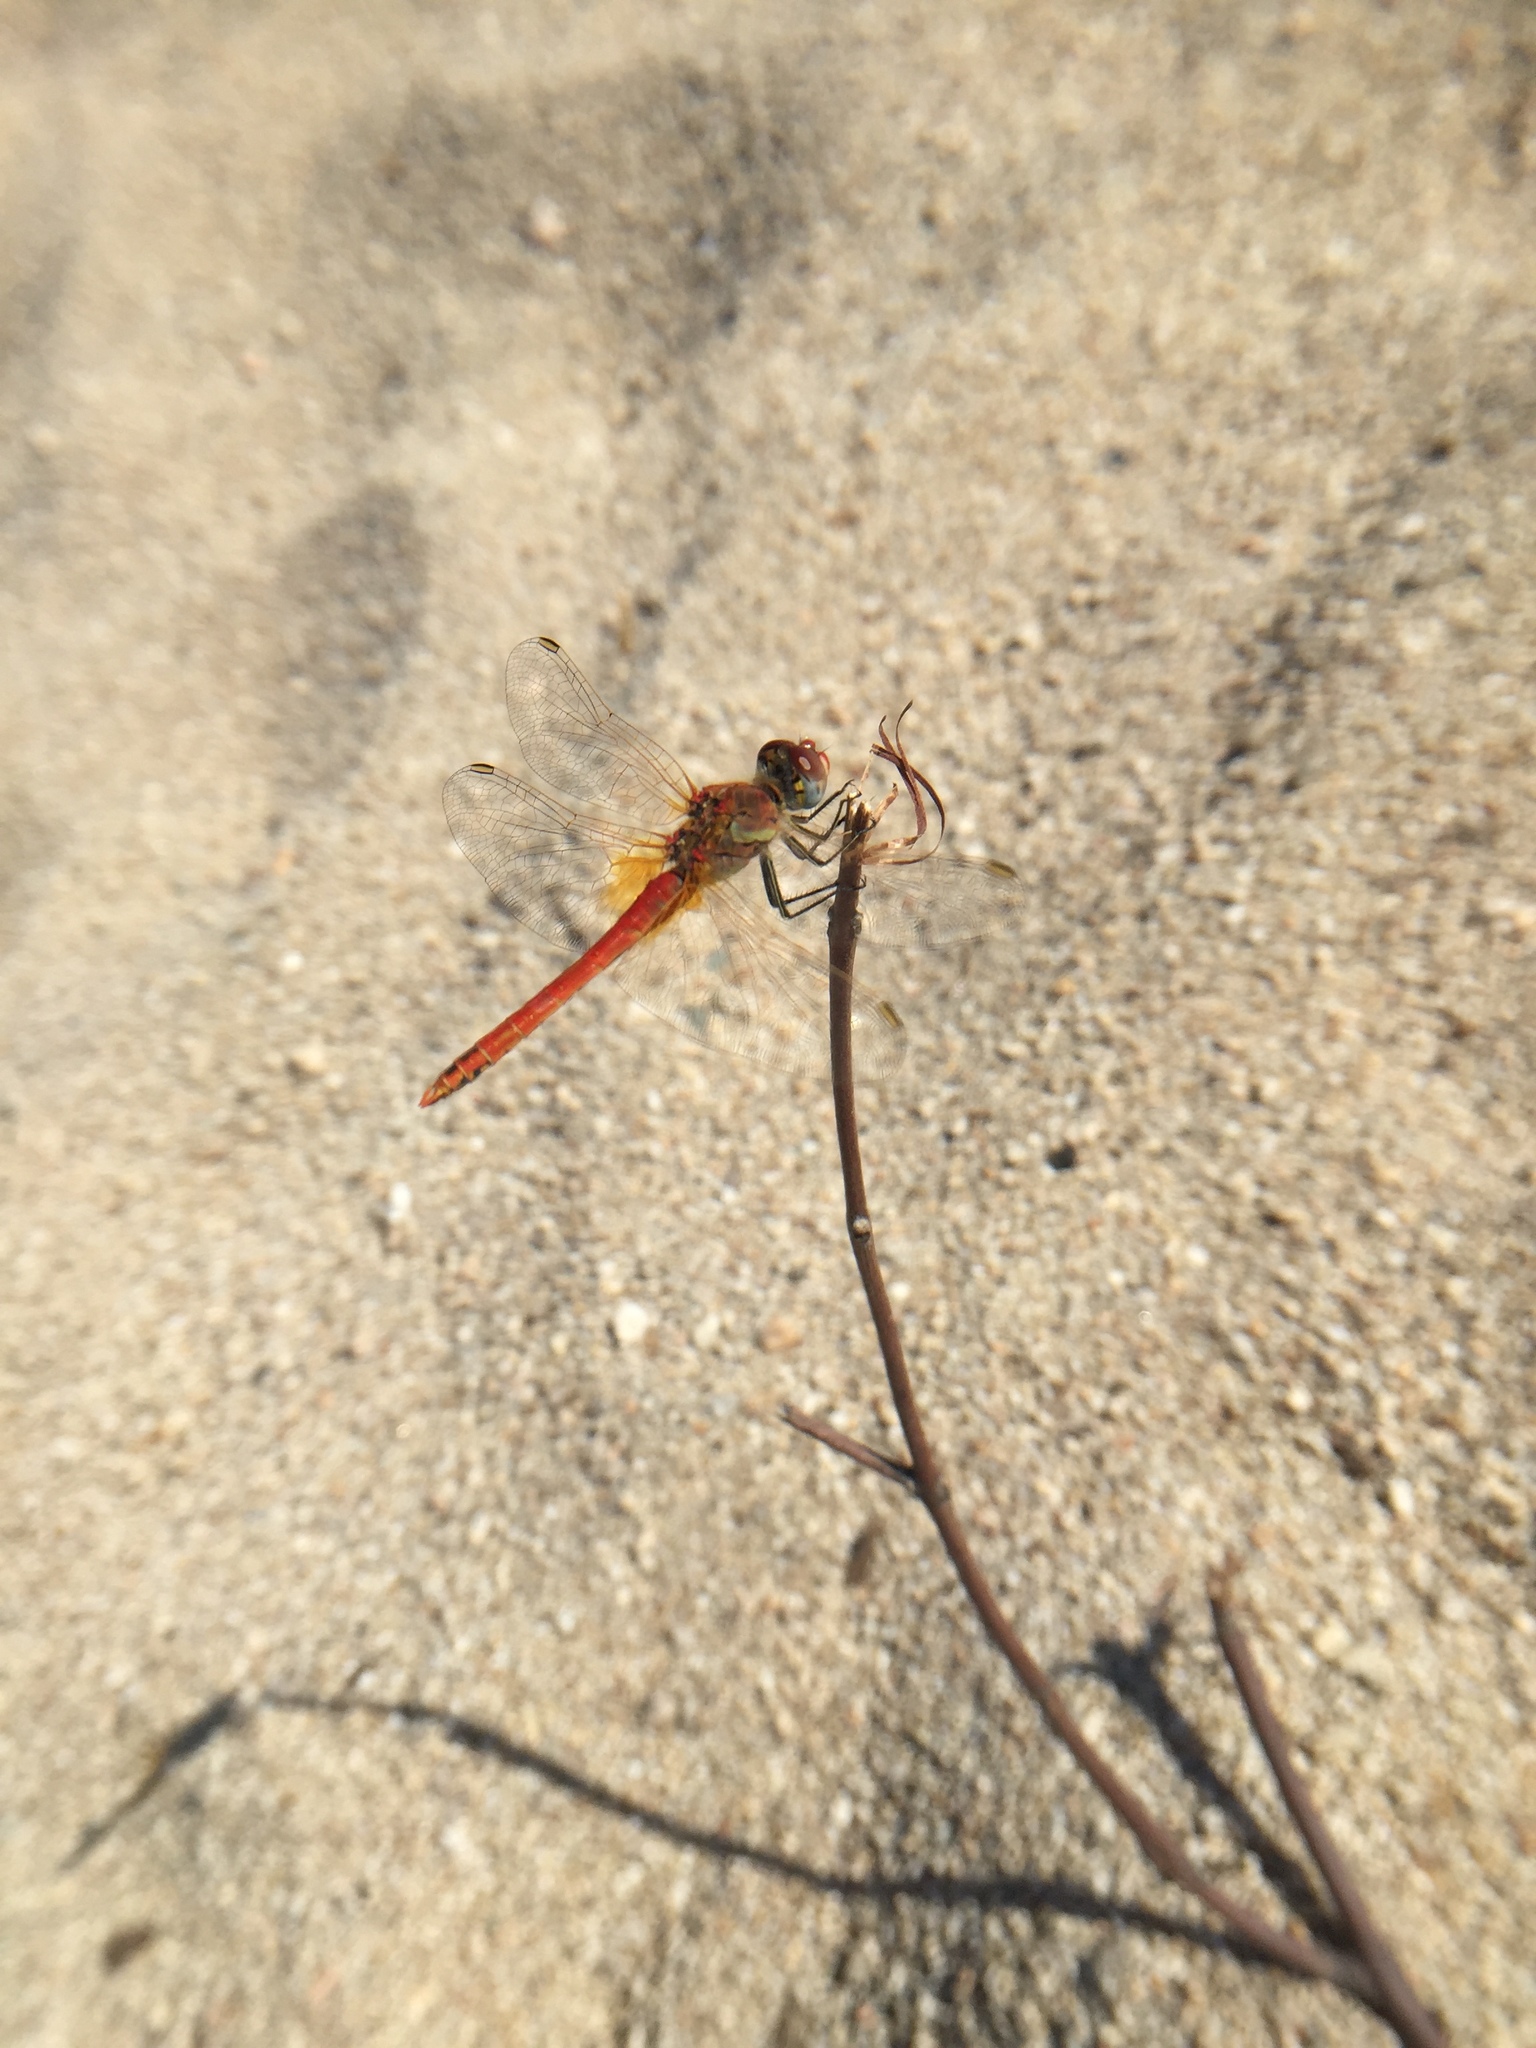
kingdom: Animalia
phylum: Arthropoda
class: Insecta
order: Odonata
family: Libellulidae
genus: Sympetrum
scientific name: Sympetrum fonscolombii
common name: Red-veined darter
